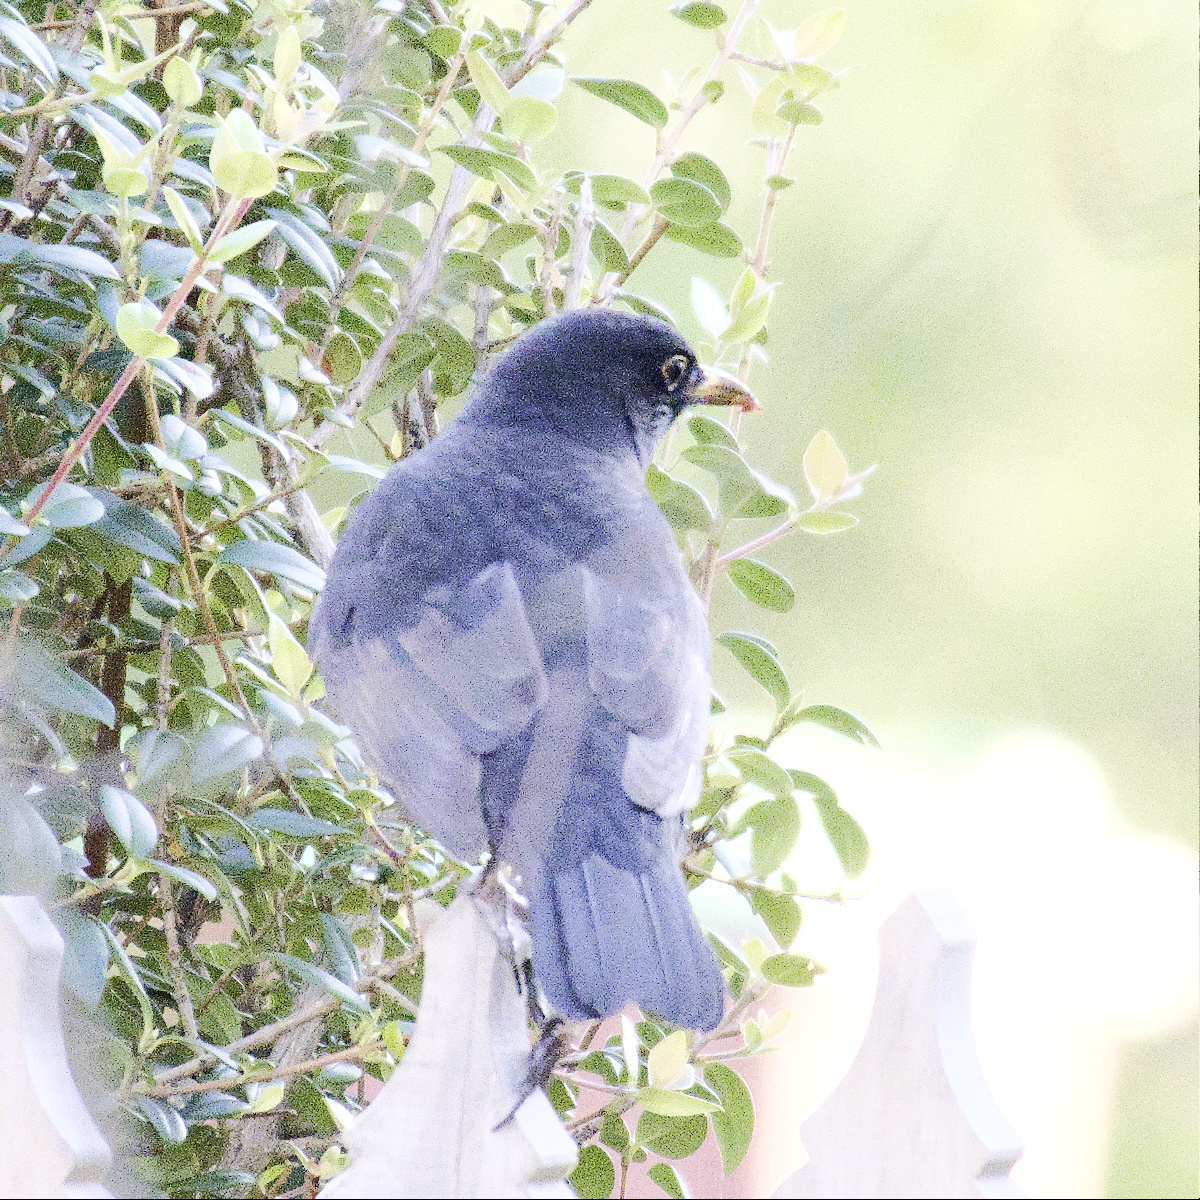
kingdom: Animalia
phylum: Chordata
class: Aves
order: Passeriformes
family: Turdidae
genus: Turdus
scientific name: Turdus merula
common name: Common blackbird
